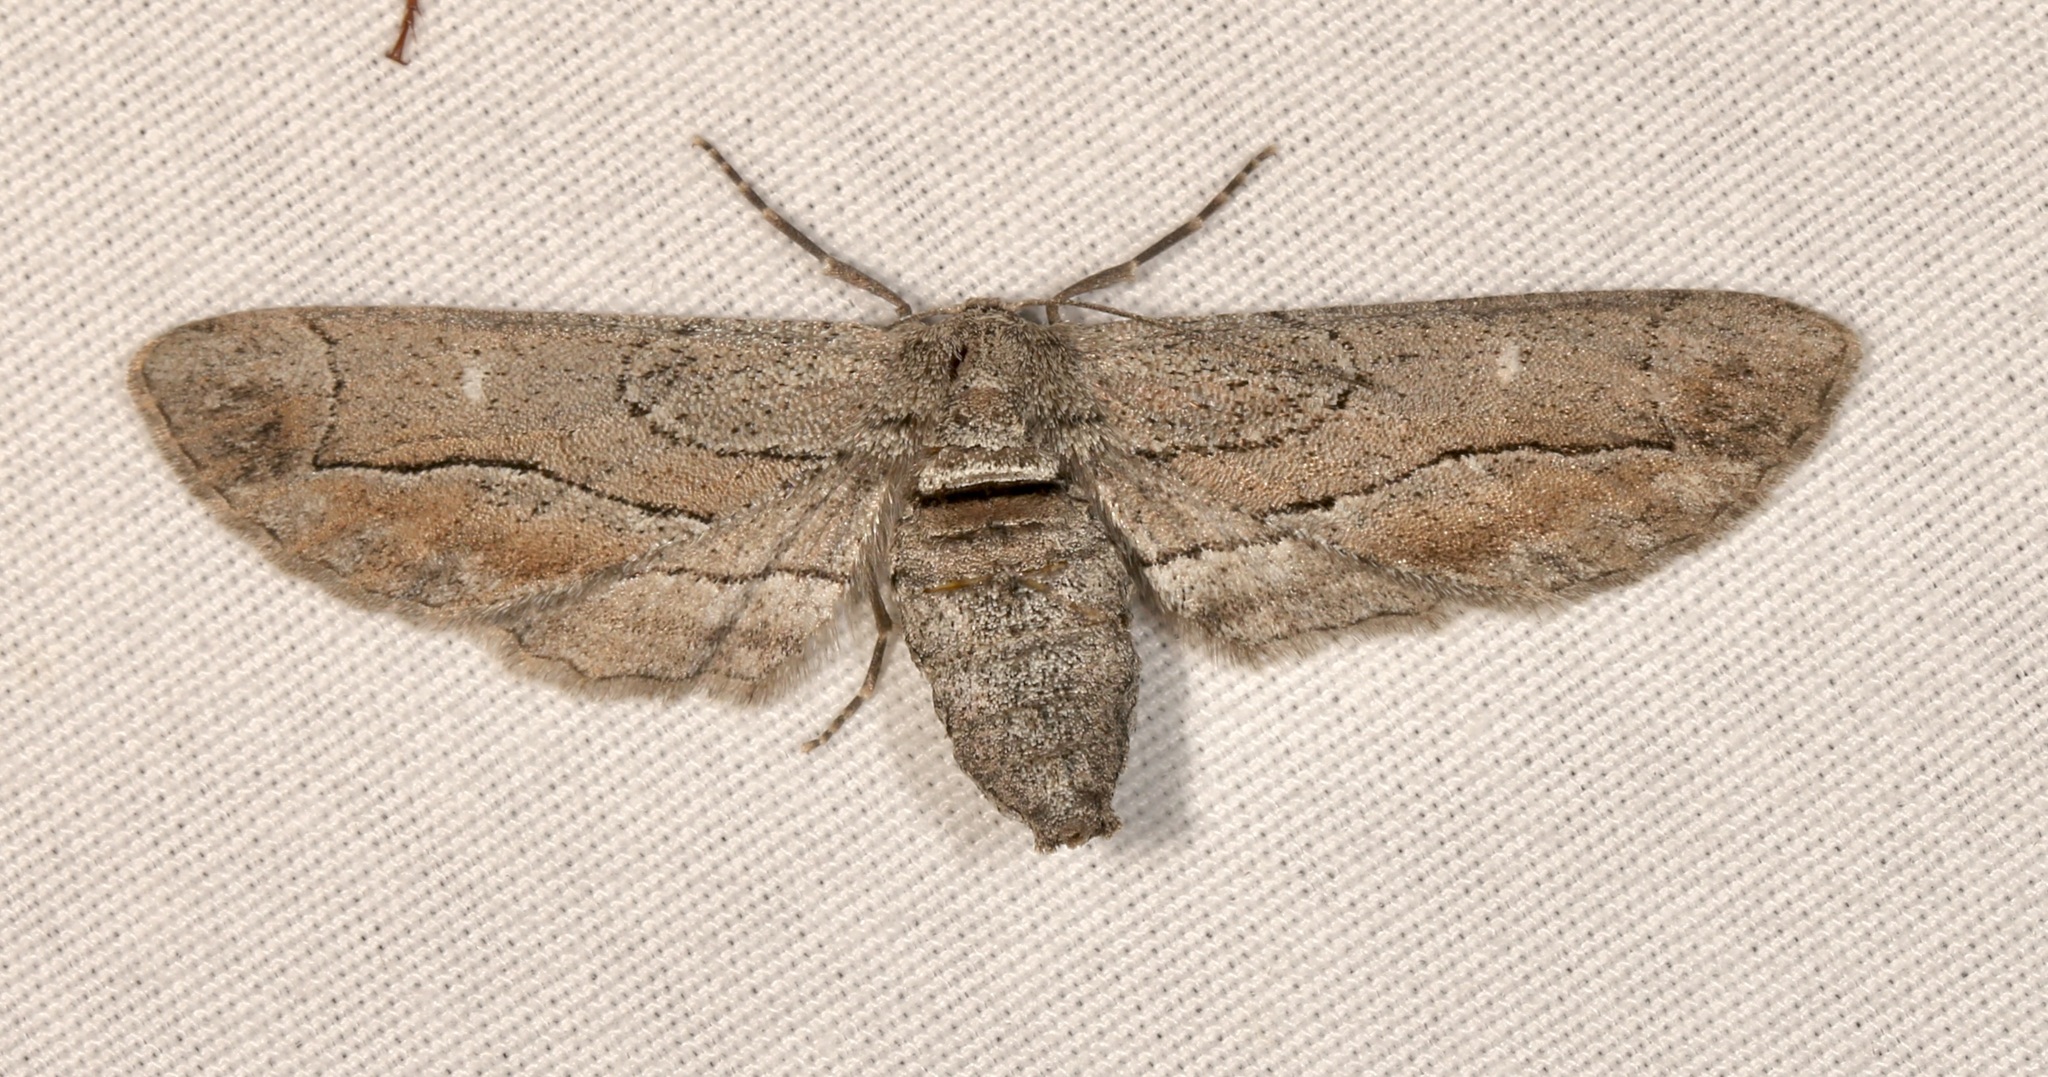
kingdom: Animalia
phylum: Arthropoda
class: Insecta
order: Lepidoptera
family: Geometridae
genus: Holochroa
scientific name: Holochroa dissociarius
